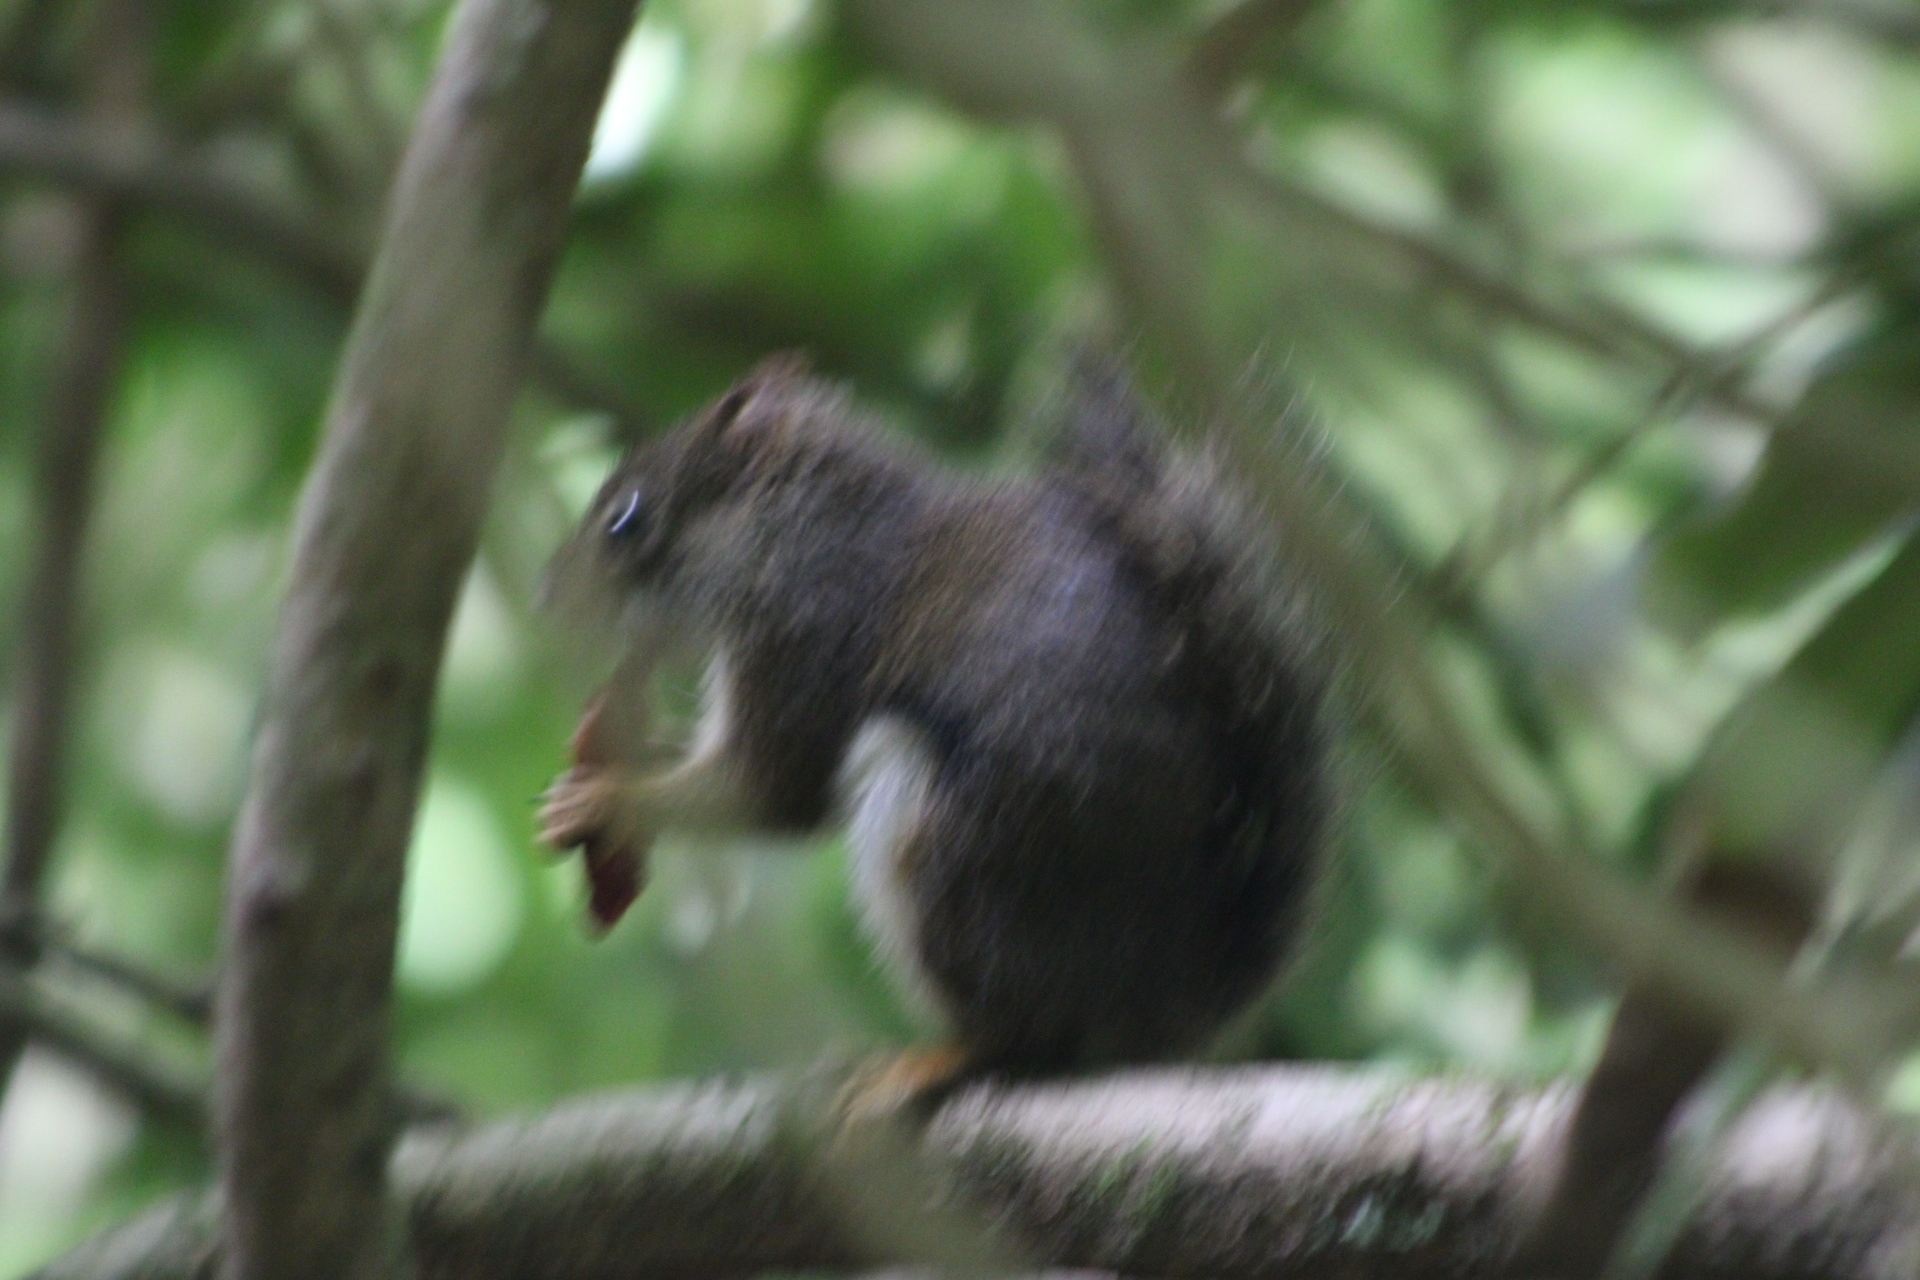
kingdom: Animalia
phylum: Chordata
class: Mammalia
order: Rodentia
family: Sciuridae
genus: Tamiasciurus
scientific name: Tamiasciurus hudsonicus
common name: Red squirrel
